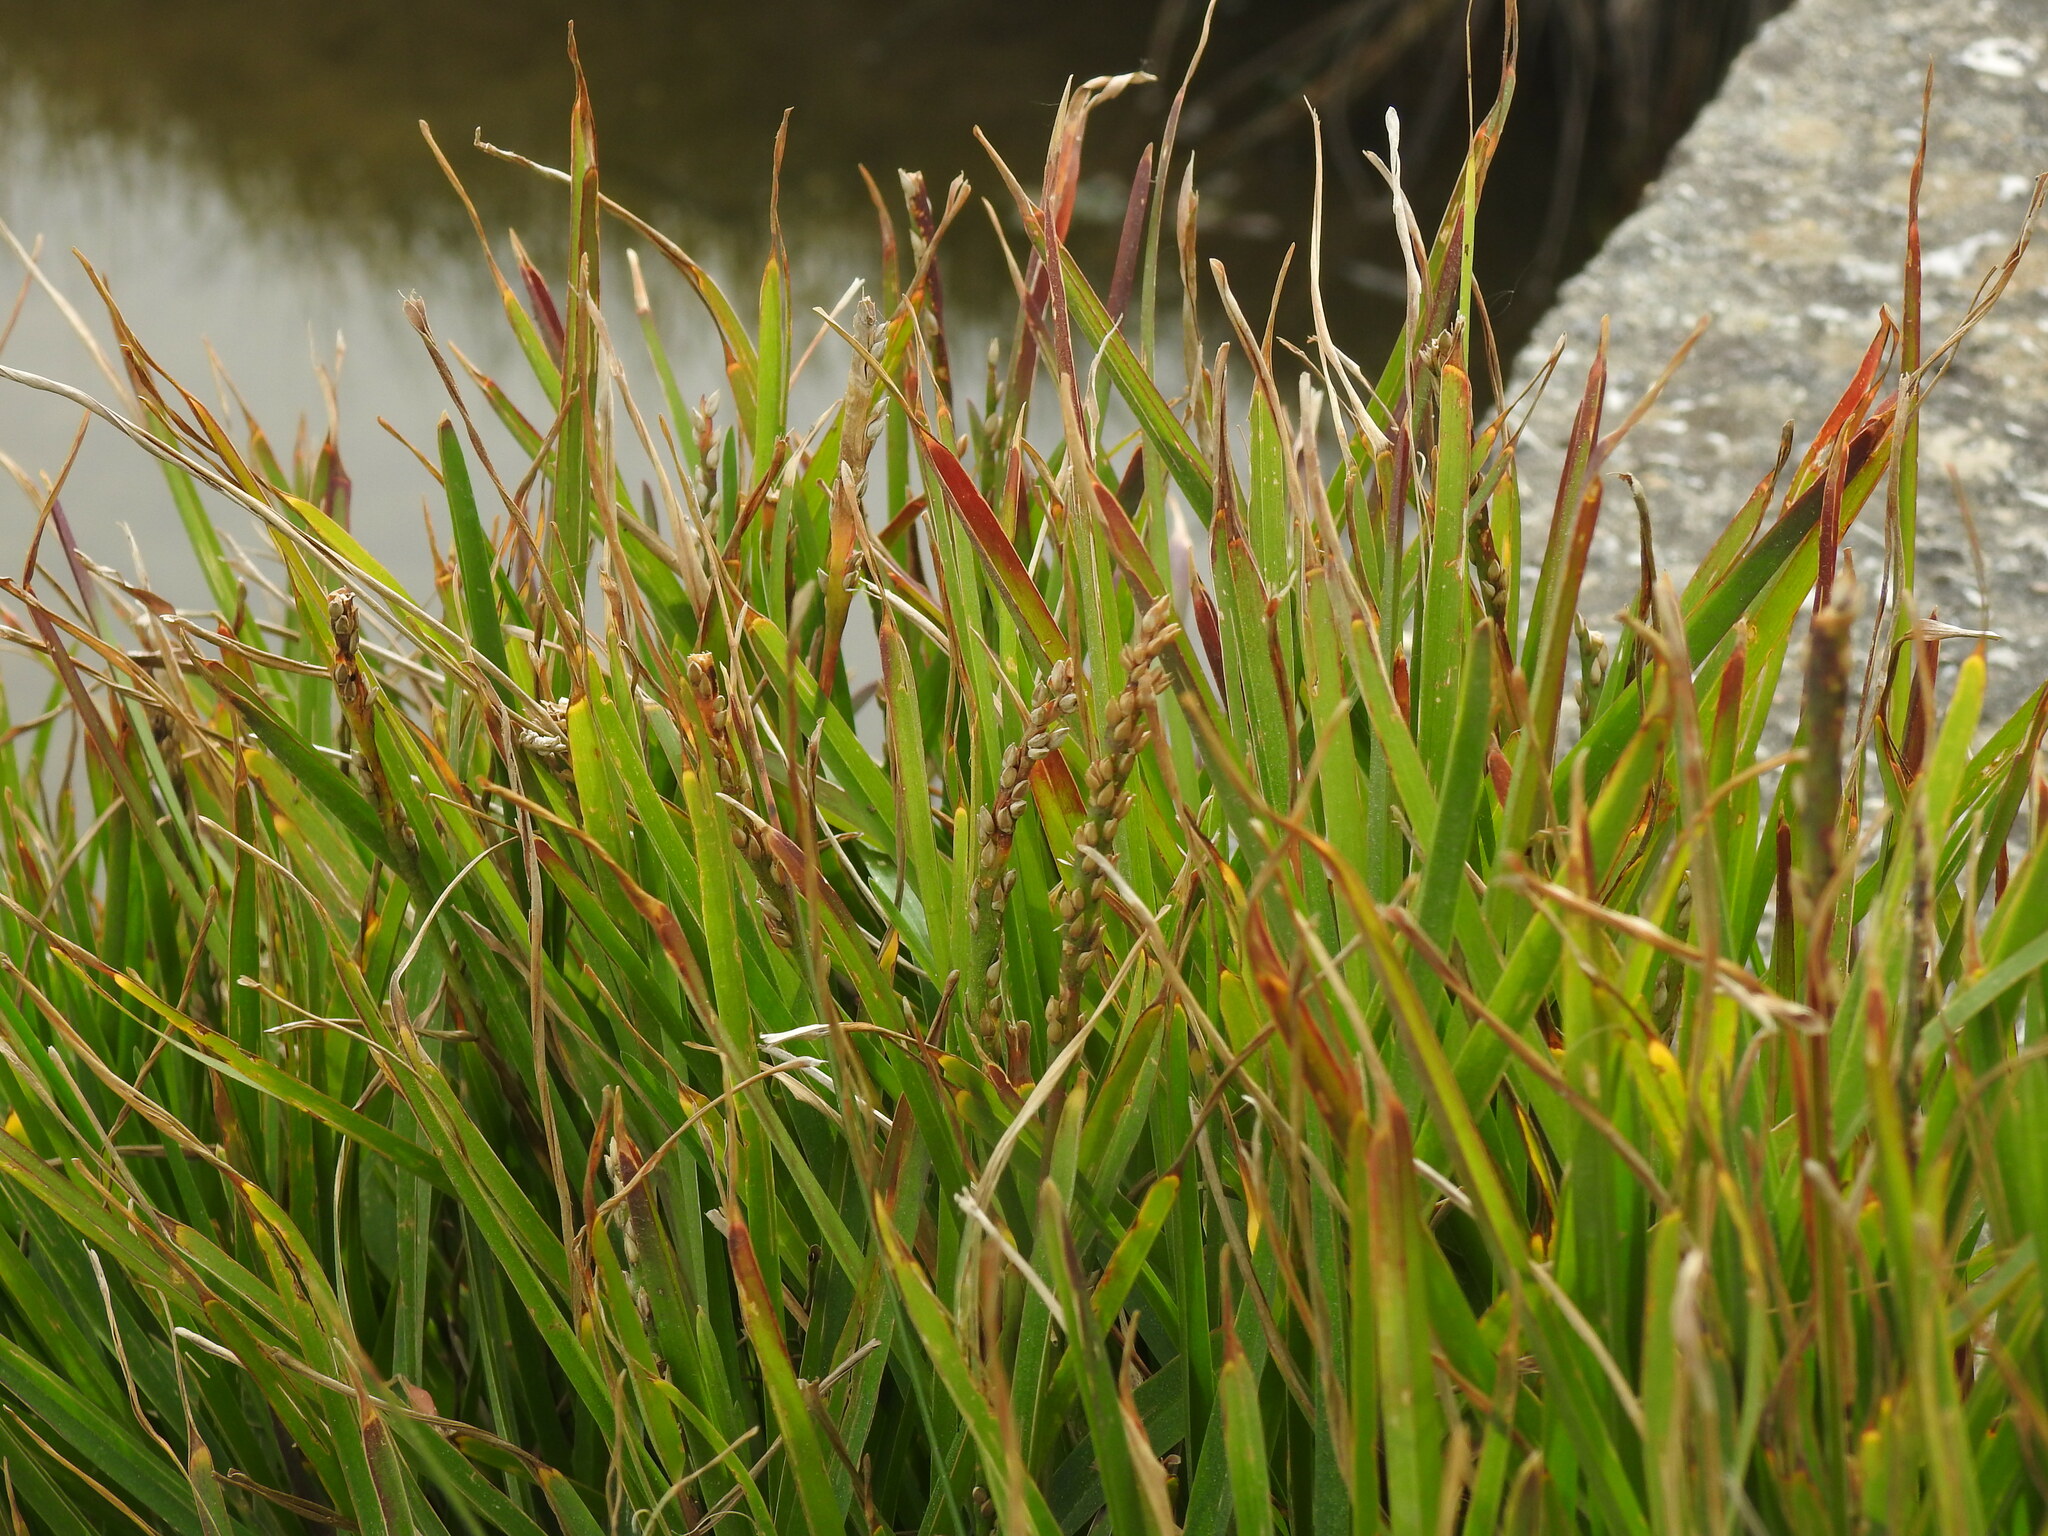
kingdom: Plantae
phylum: Tracheophyta
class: Liliopsida
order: Poales
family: Poaceae
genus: Stenotaphrum
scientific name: Stenotaphrum secundatum
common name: St. augustine grass
